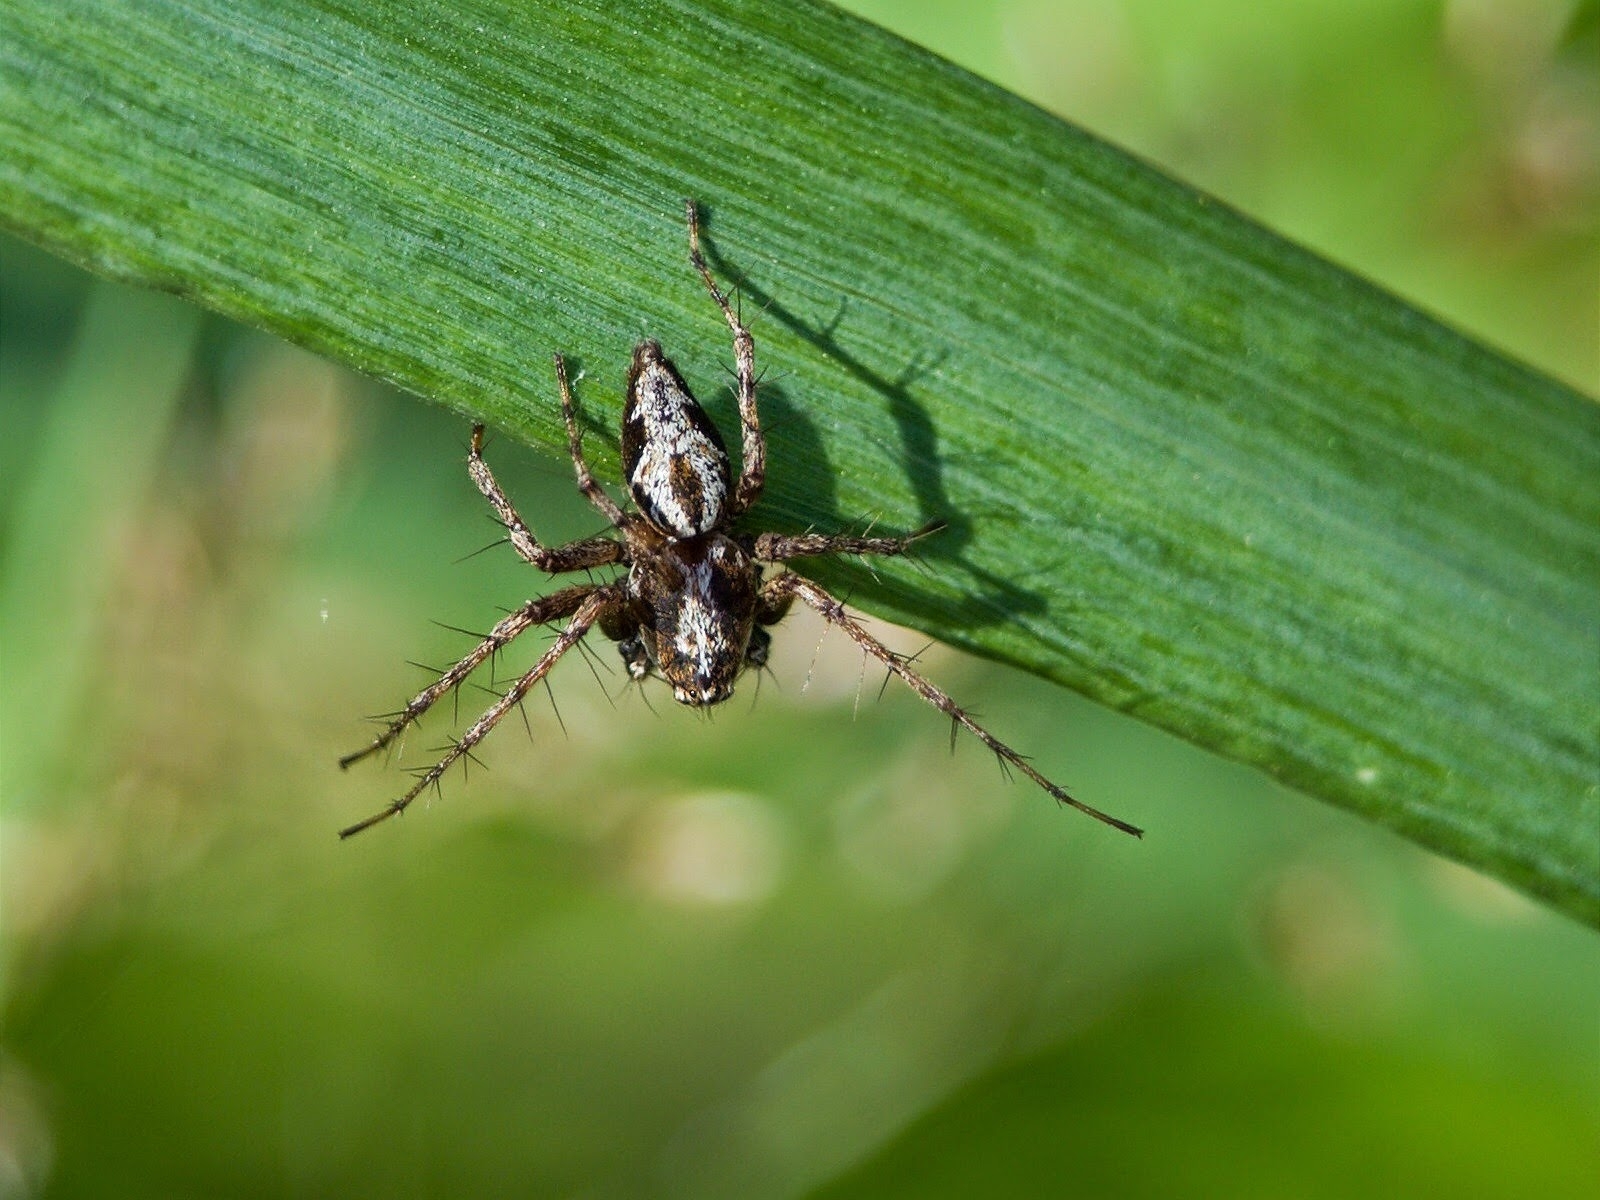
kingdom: Animalia
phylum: Arthropoda
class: Arachnida
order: Araneae
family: Oxyopidae
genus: Oxyopes
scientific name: Oxyopes ramosus
